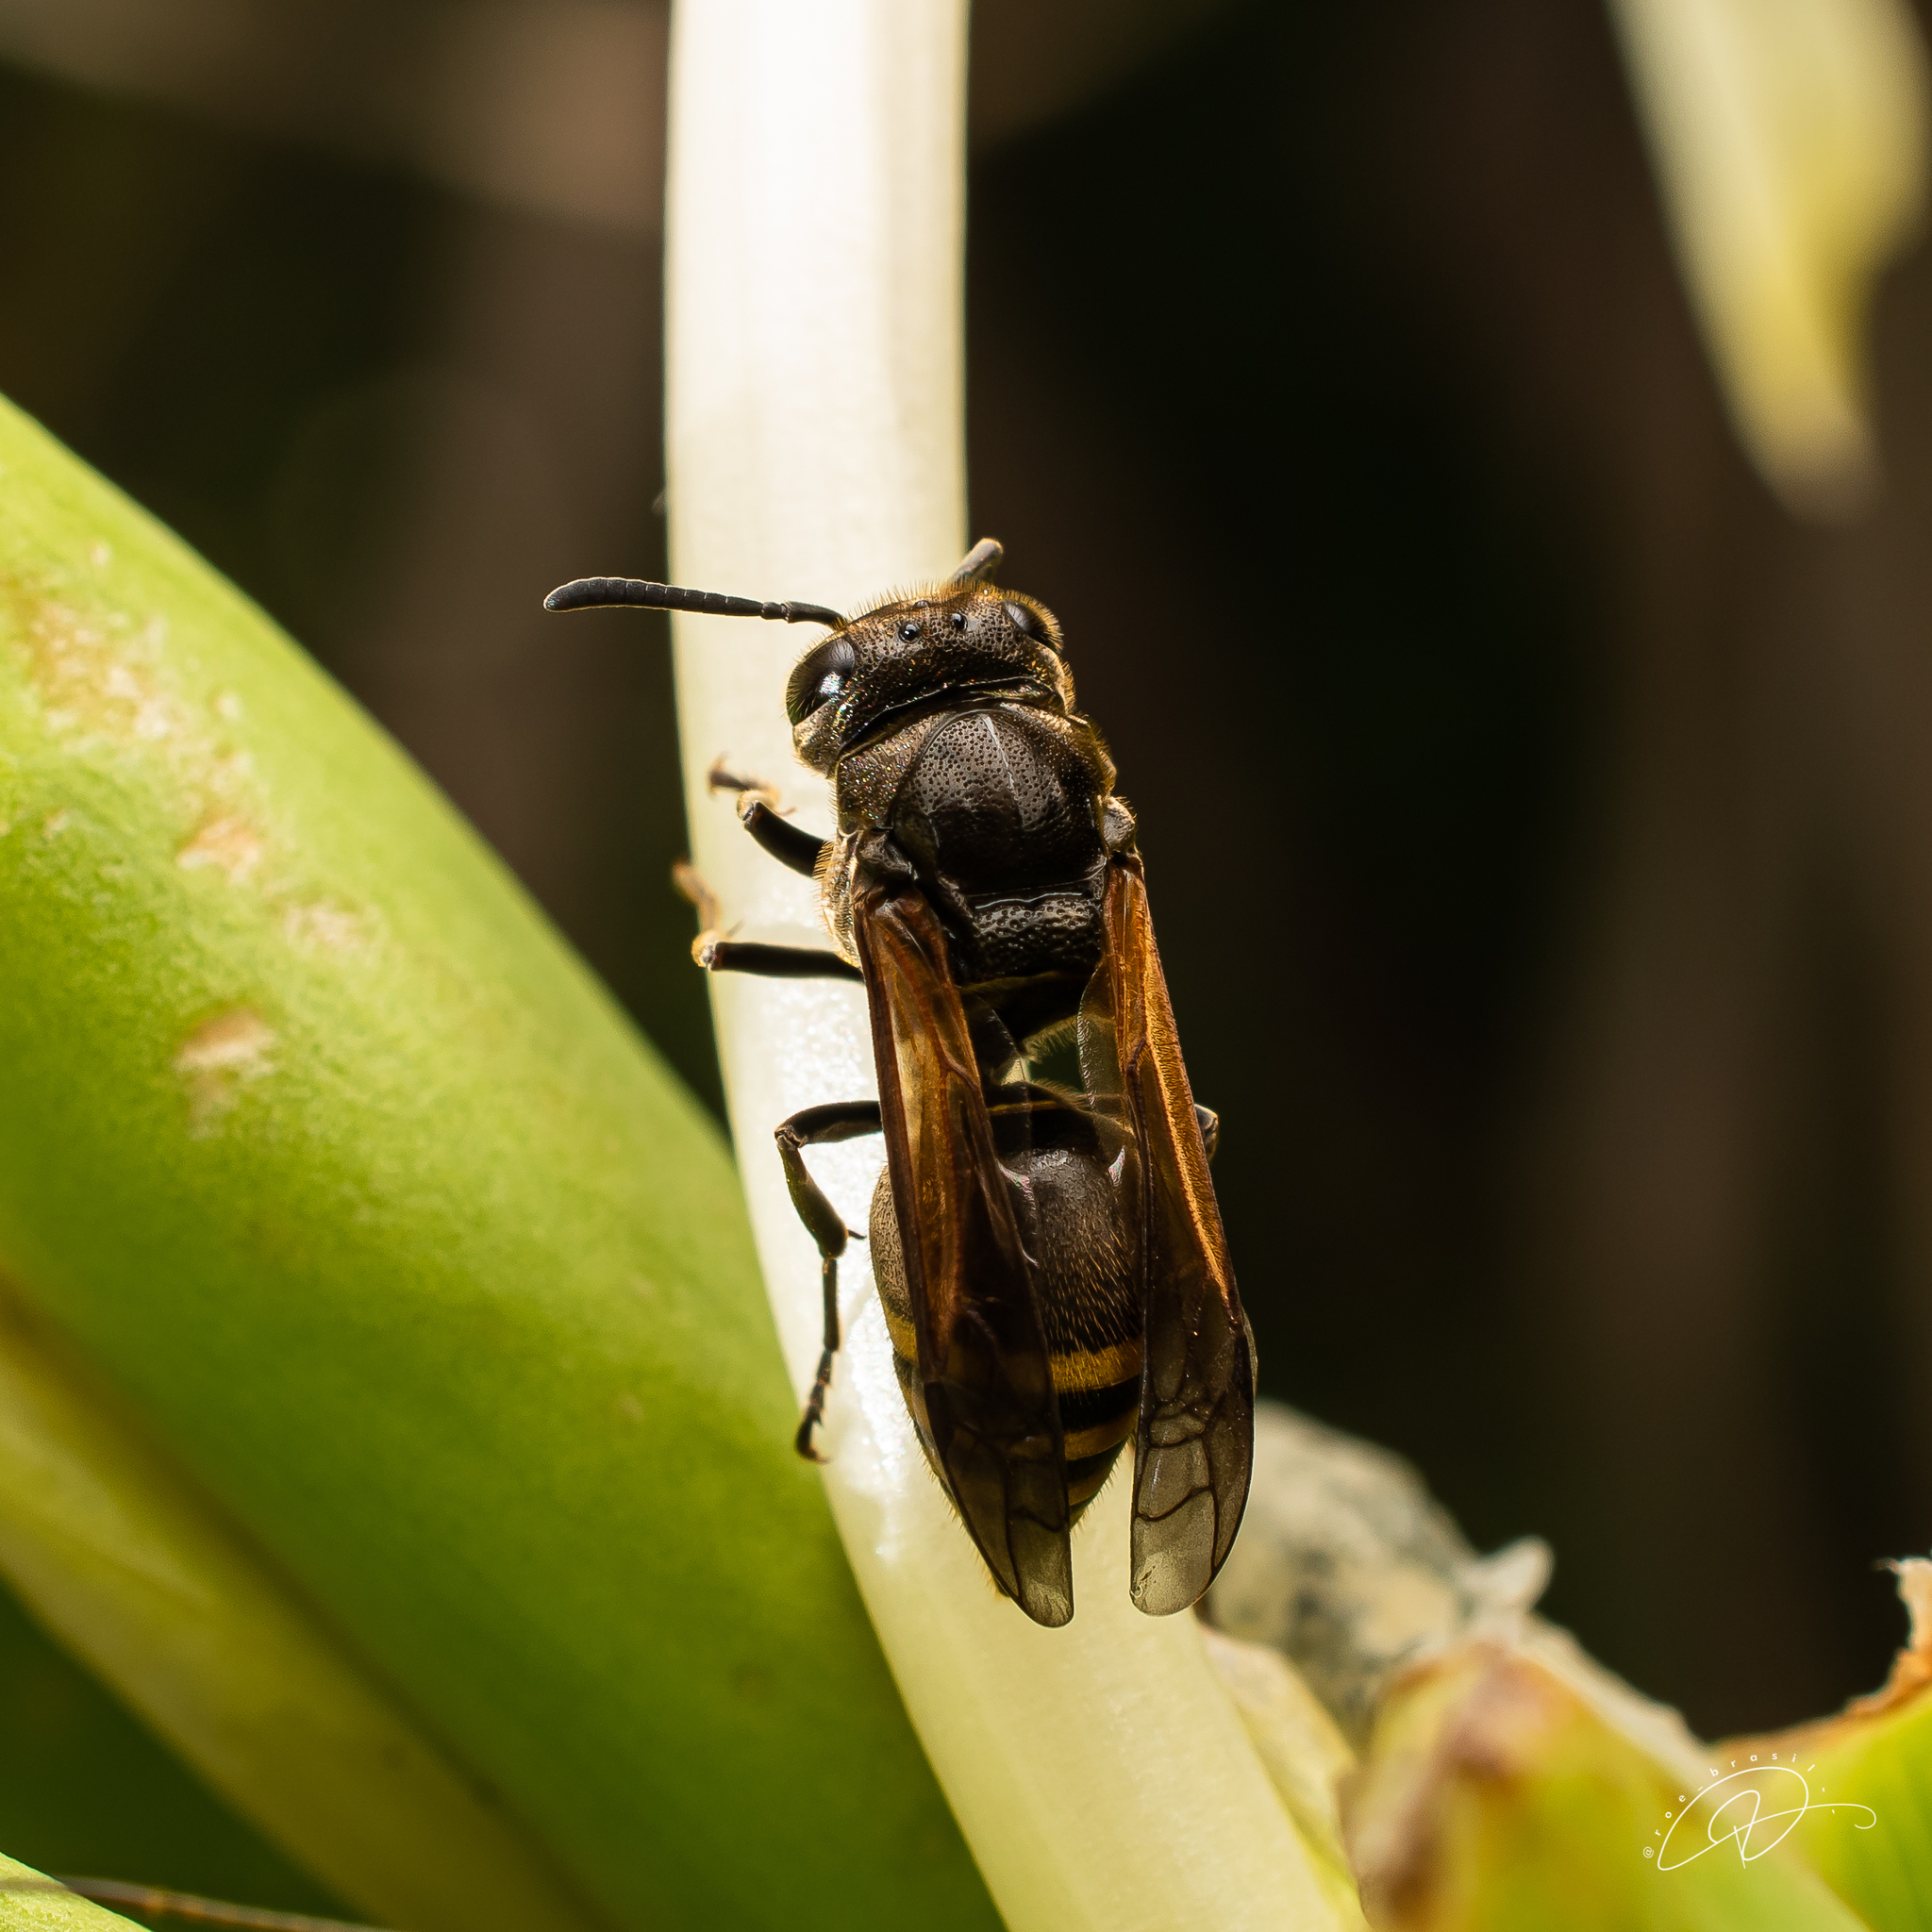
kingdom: Animalia
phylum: Arthropoda
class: Insecta
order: Hymenoptera
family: Vespidae
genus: Brachygastra
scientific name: Brachygastra lecheguana
